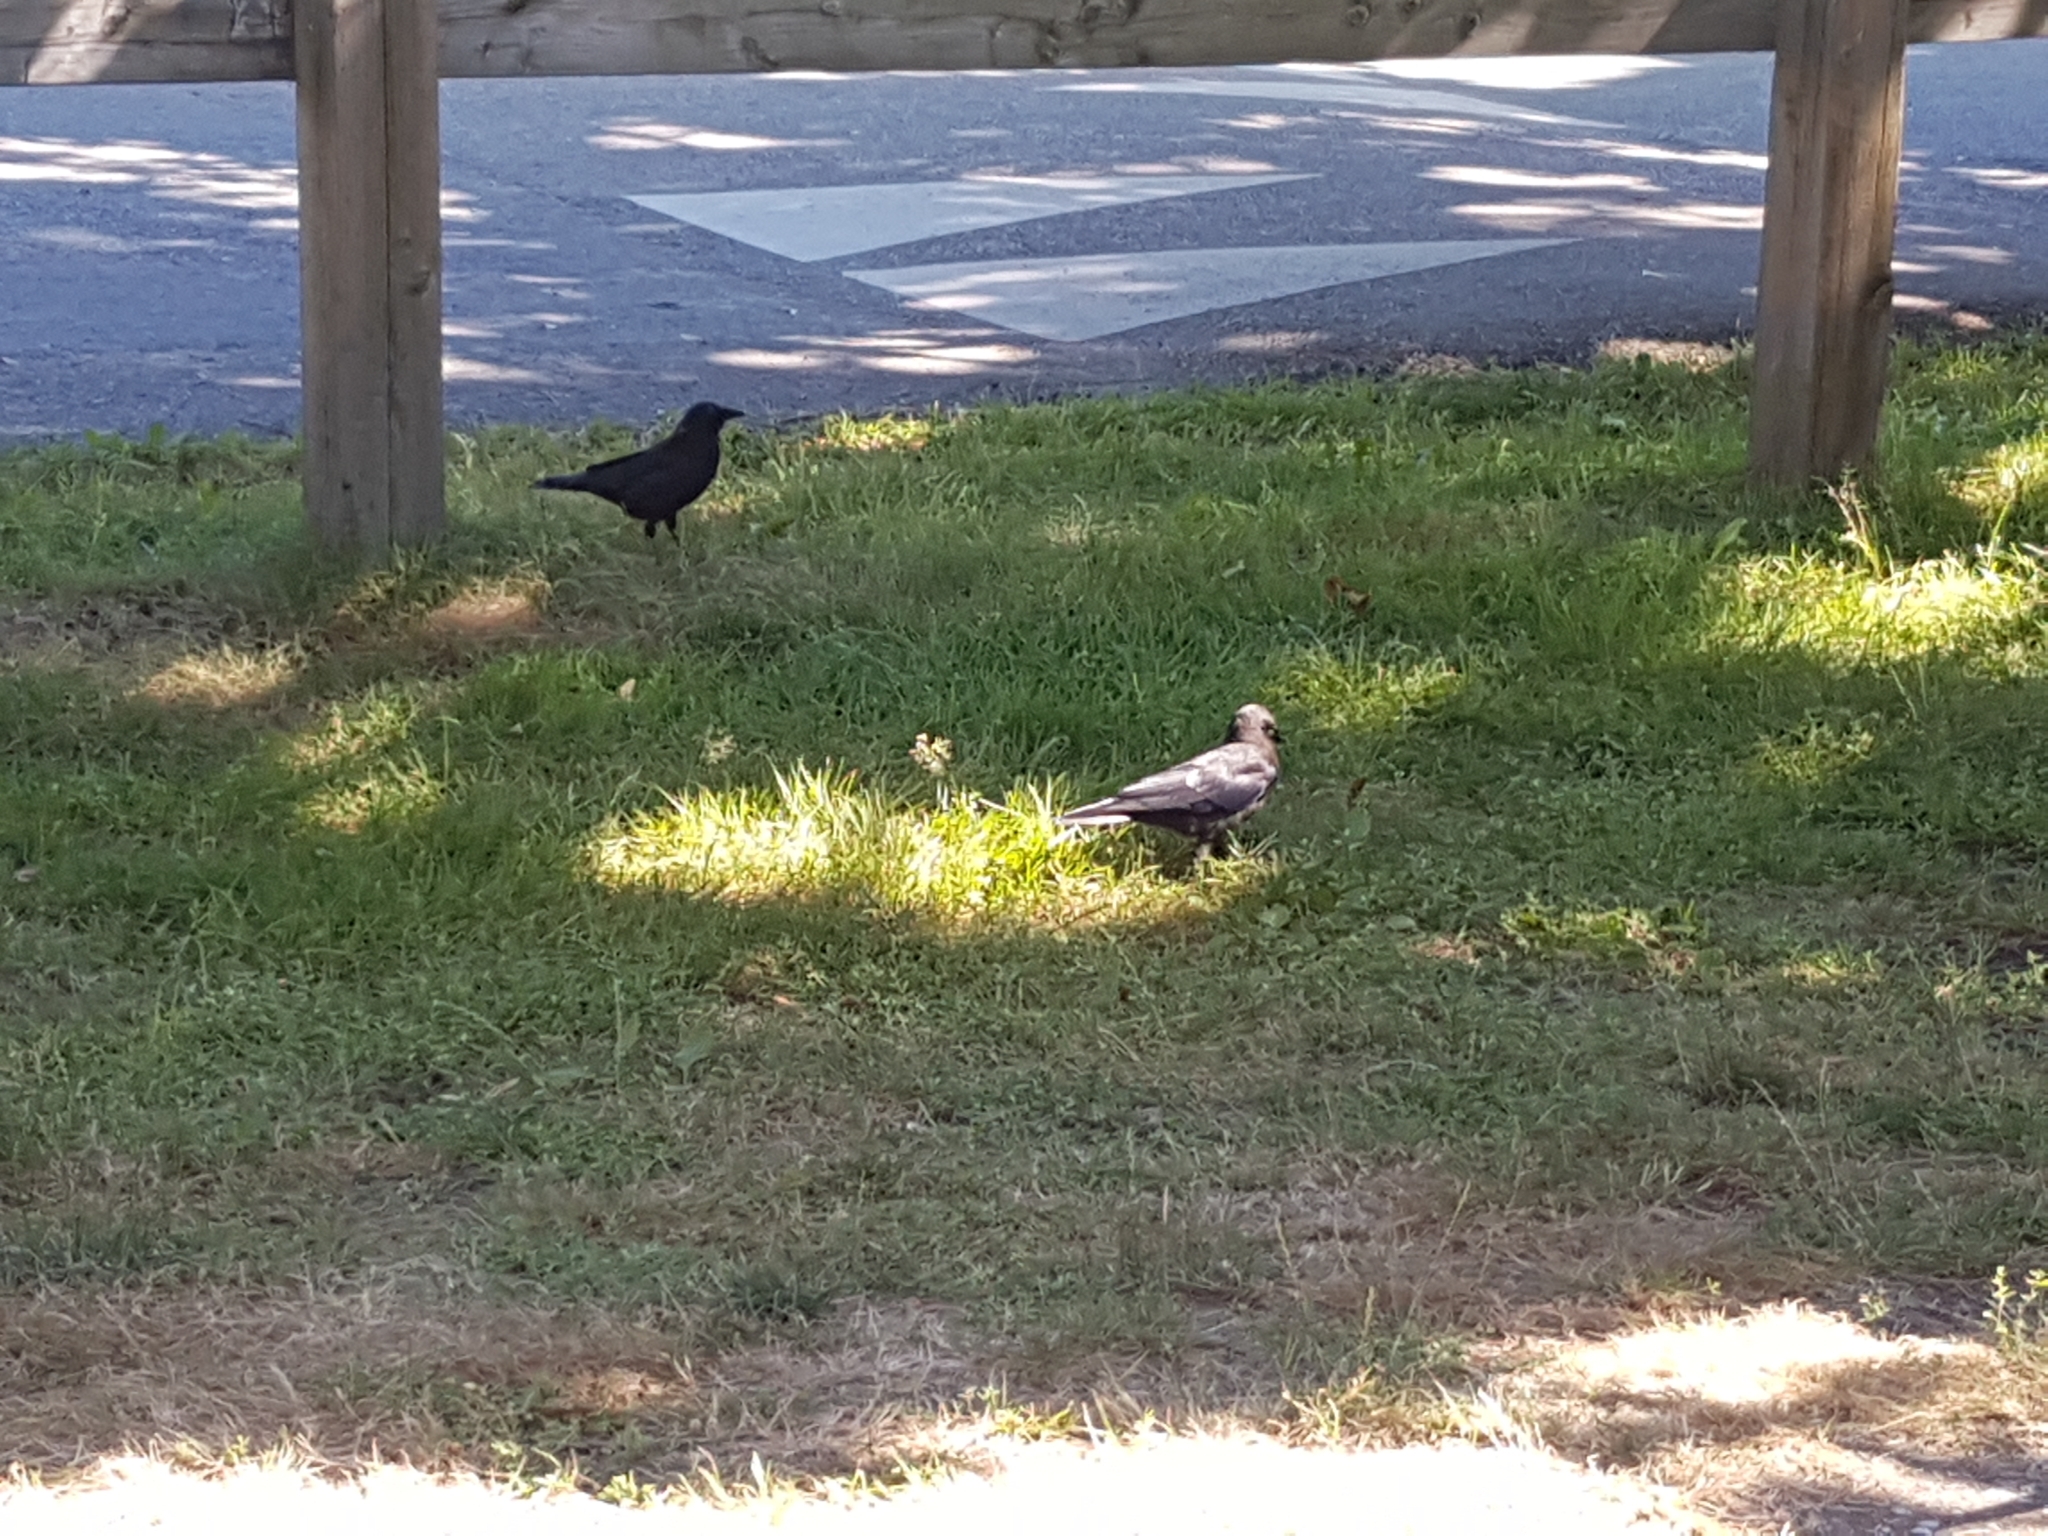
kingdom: Animalia
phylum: Chordata
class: Aves
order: Passeriformes
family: Corvidae
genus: Corvus
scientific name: Corvus brachyrhynchos
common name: American crow
